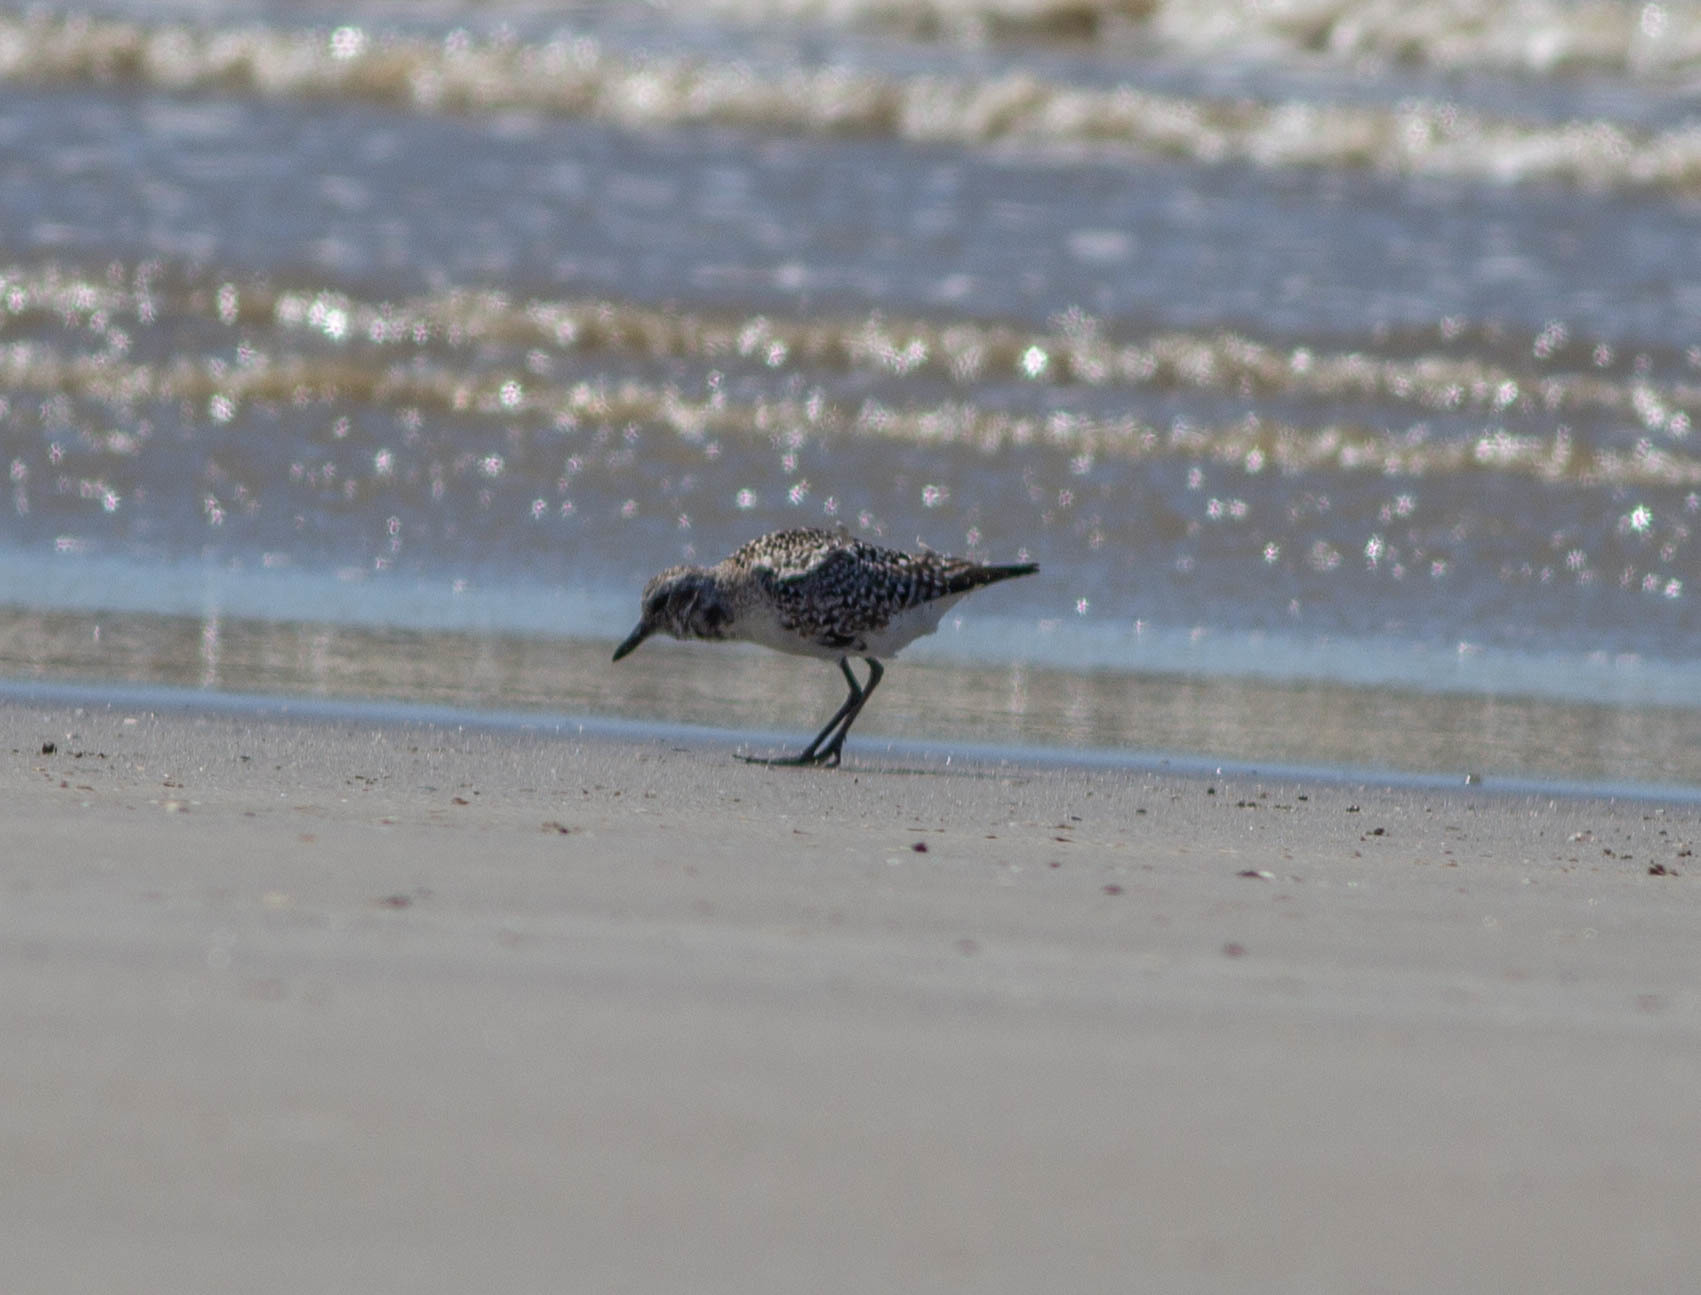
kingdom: Animalia
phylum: Chordata
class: Aves
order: Charadriiformes
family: Scolopacidae
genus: Calidris
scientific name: Calidris alba
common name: Sanderling
